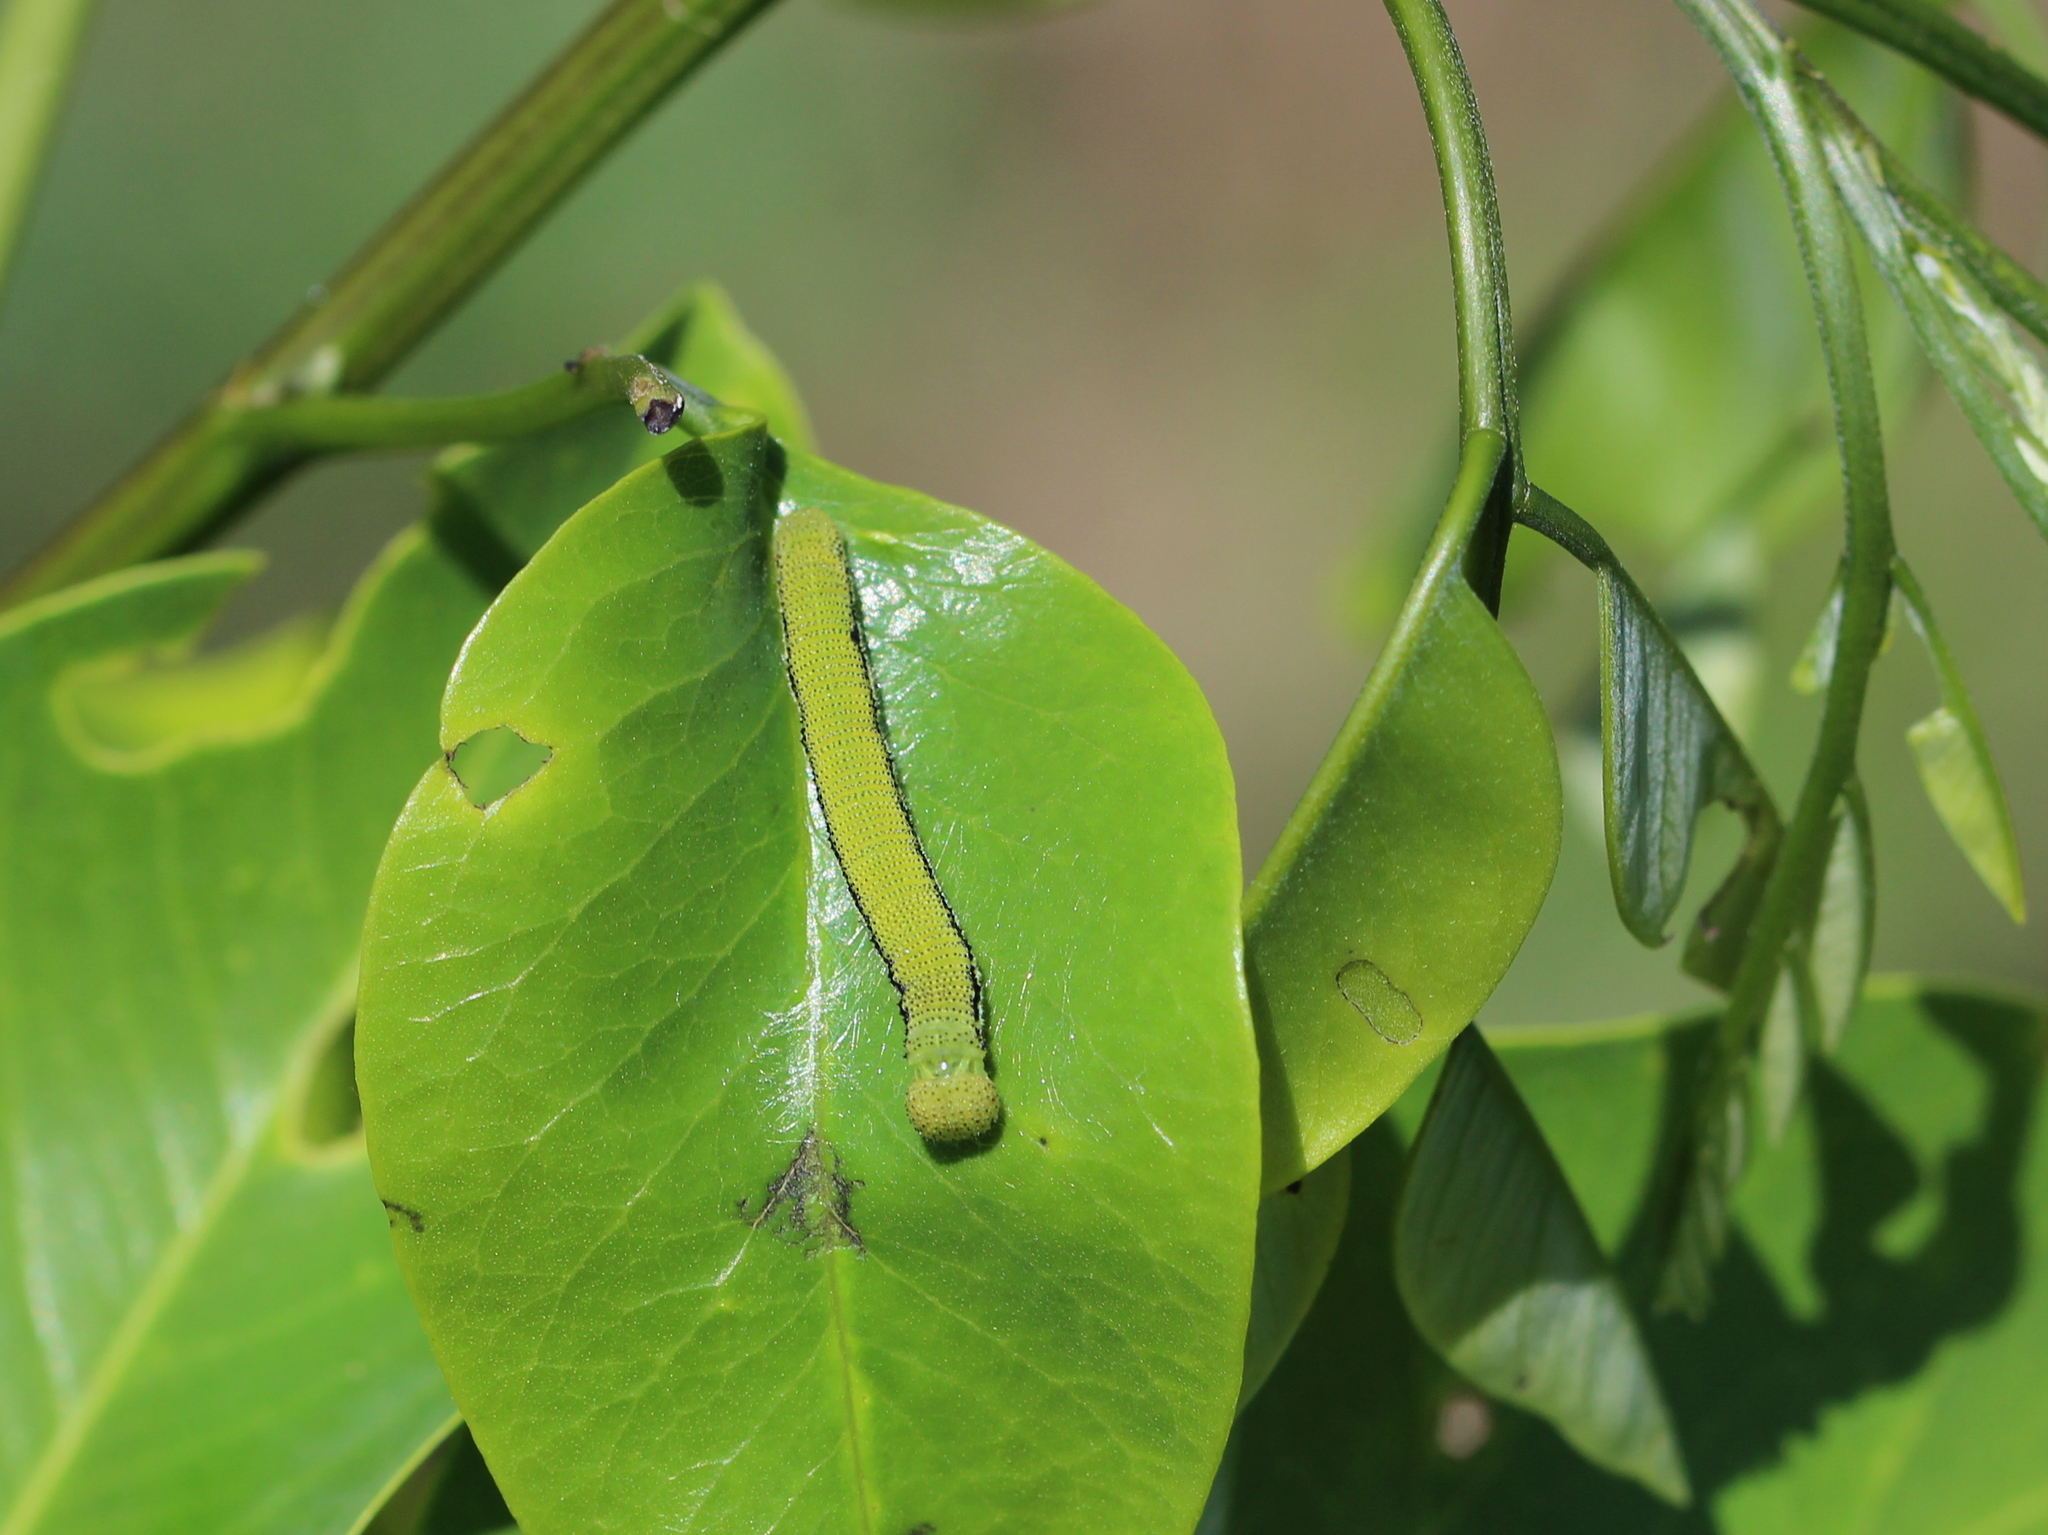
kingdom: Animalia
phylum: Arthropoda
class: Insecta
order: Lepidoptera
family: Pieridae
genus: Catopsilia
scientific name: Catopsilia pomona
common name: Common emigrant
